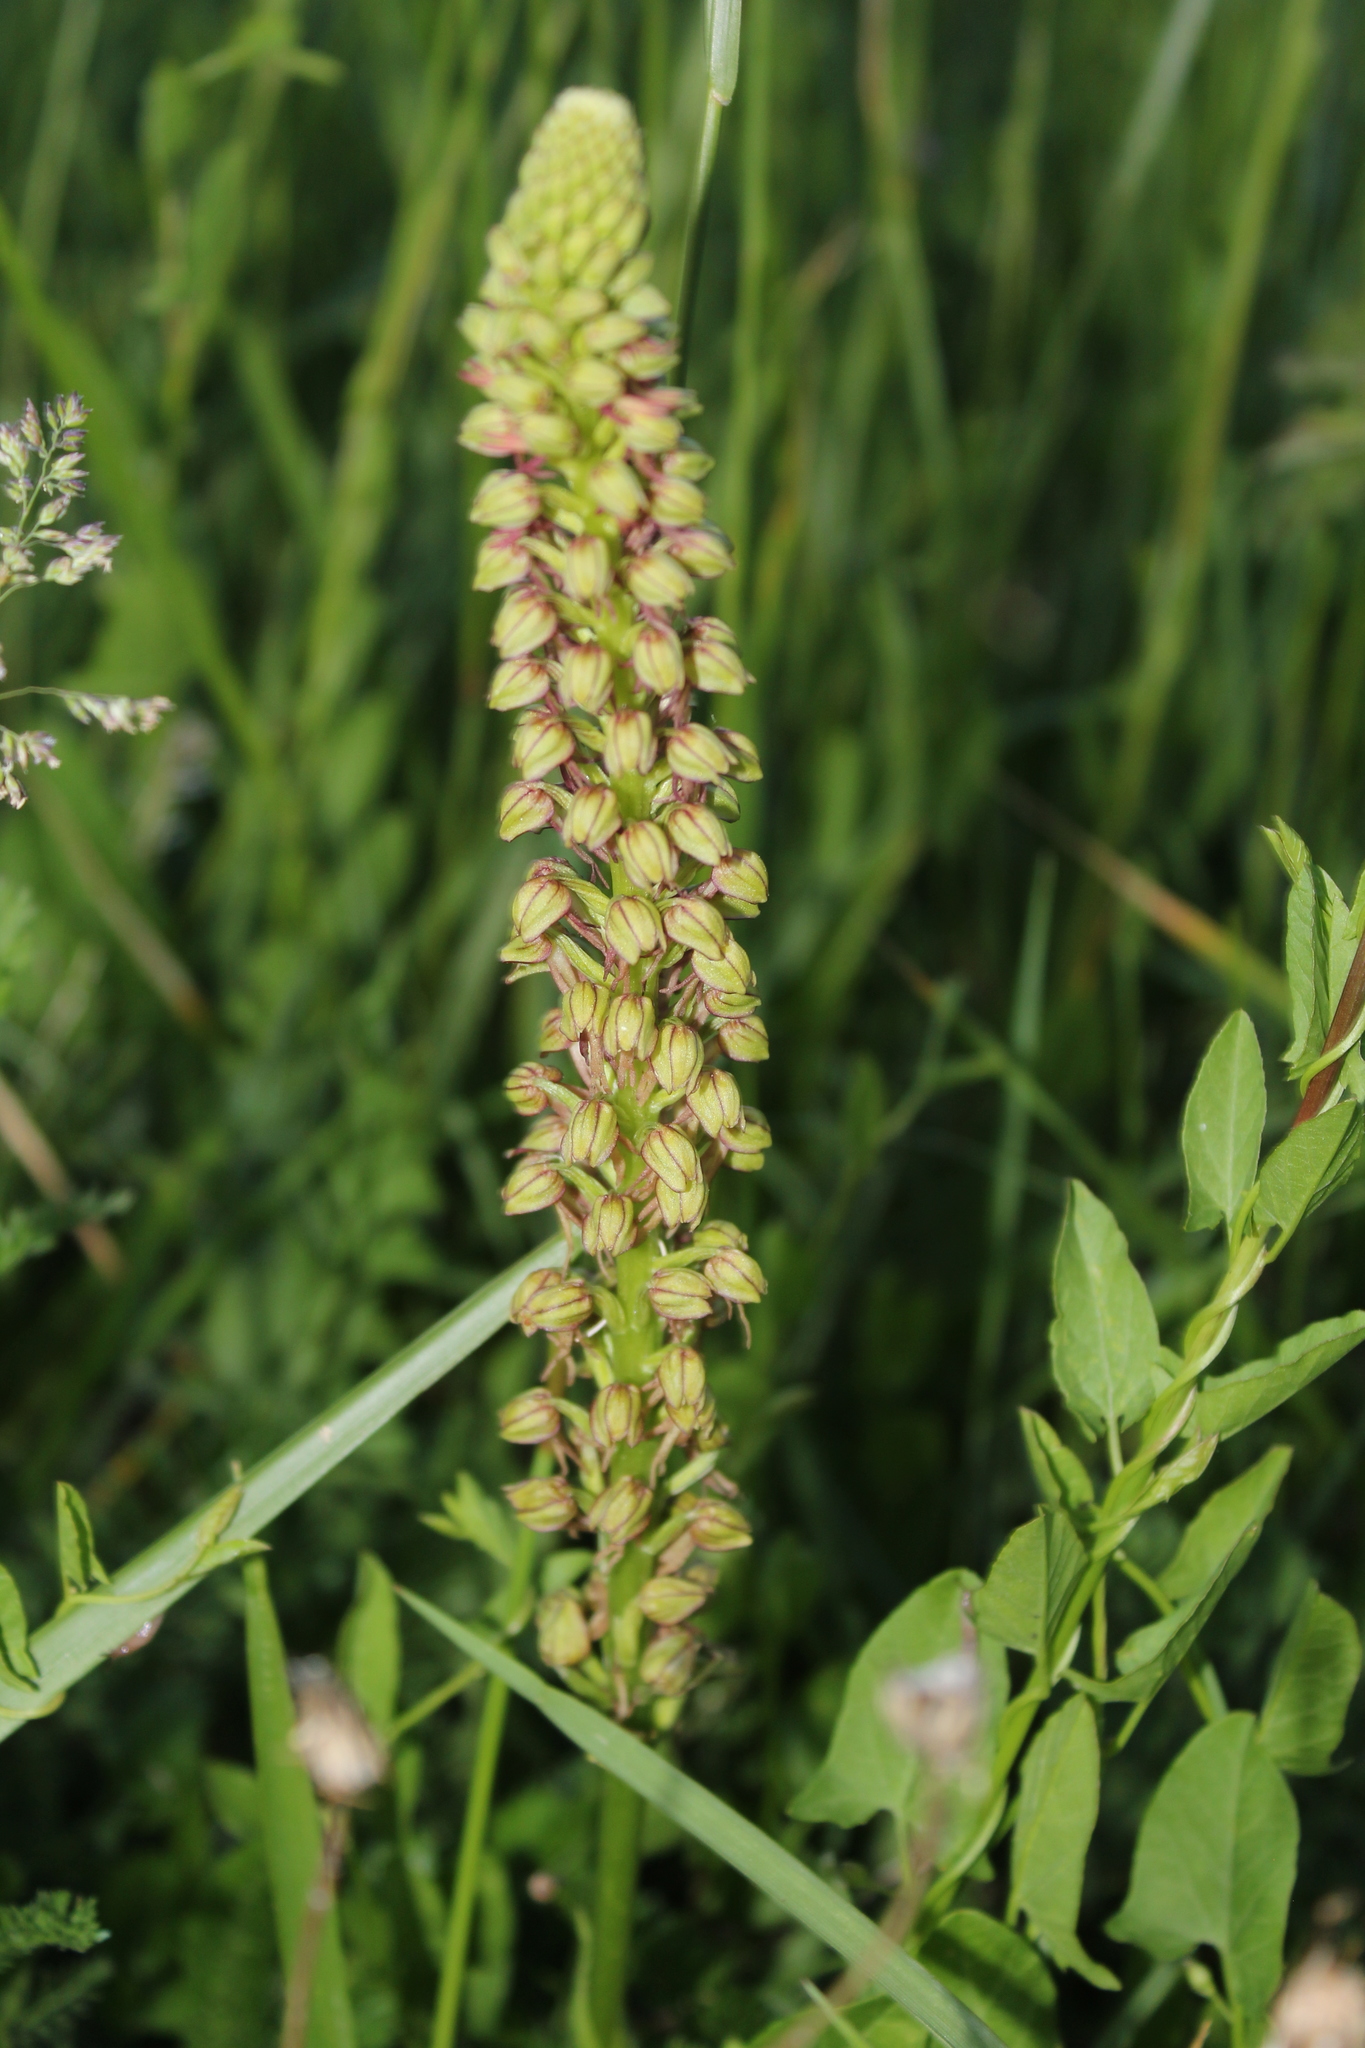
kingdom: Plantae
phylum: Tracheophyta
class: Liliopsida
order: Asparagales
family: Orchidaceae
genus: Orchis
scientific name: Orchis anthropophora
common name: Man orchid
